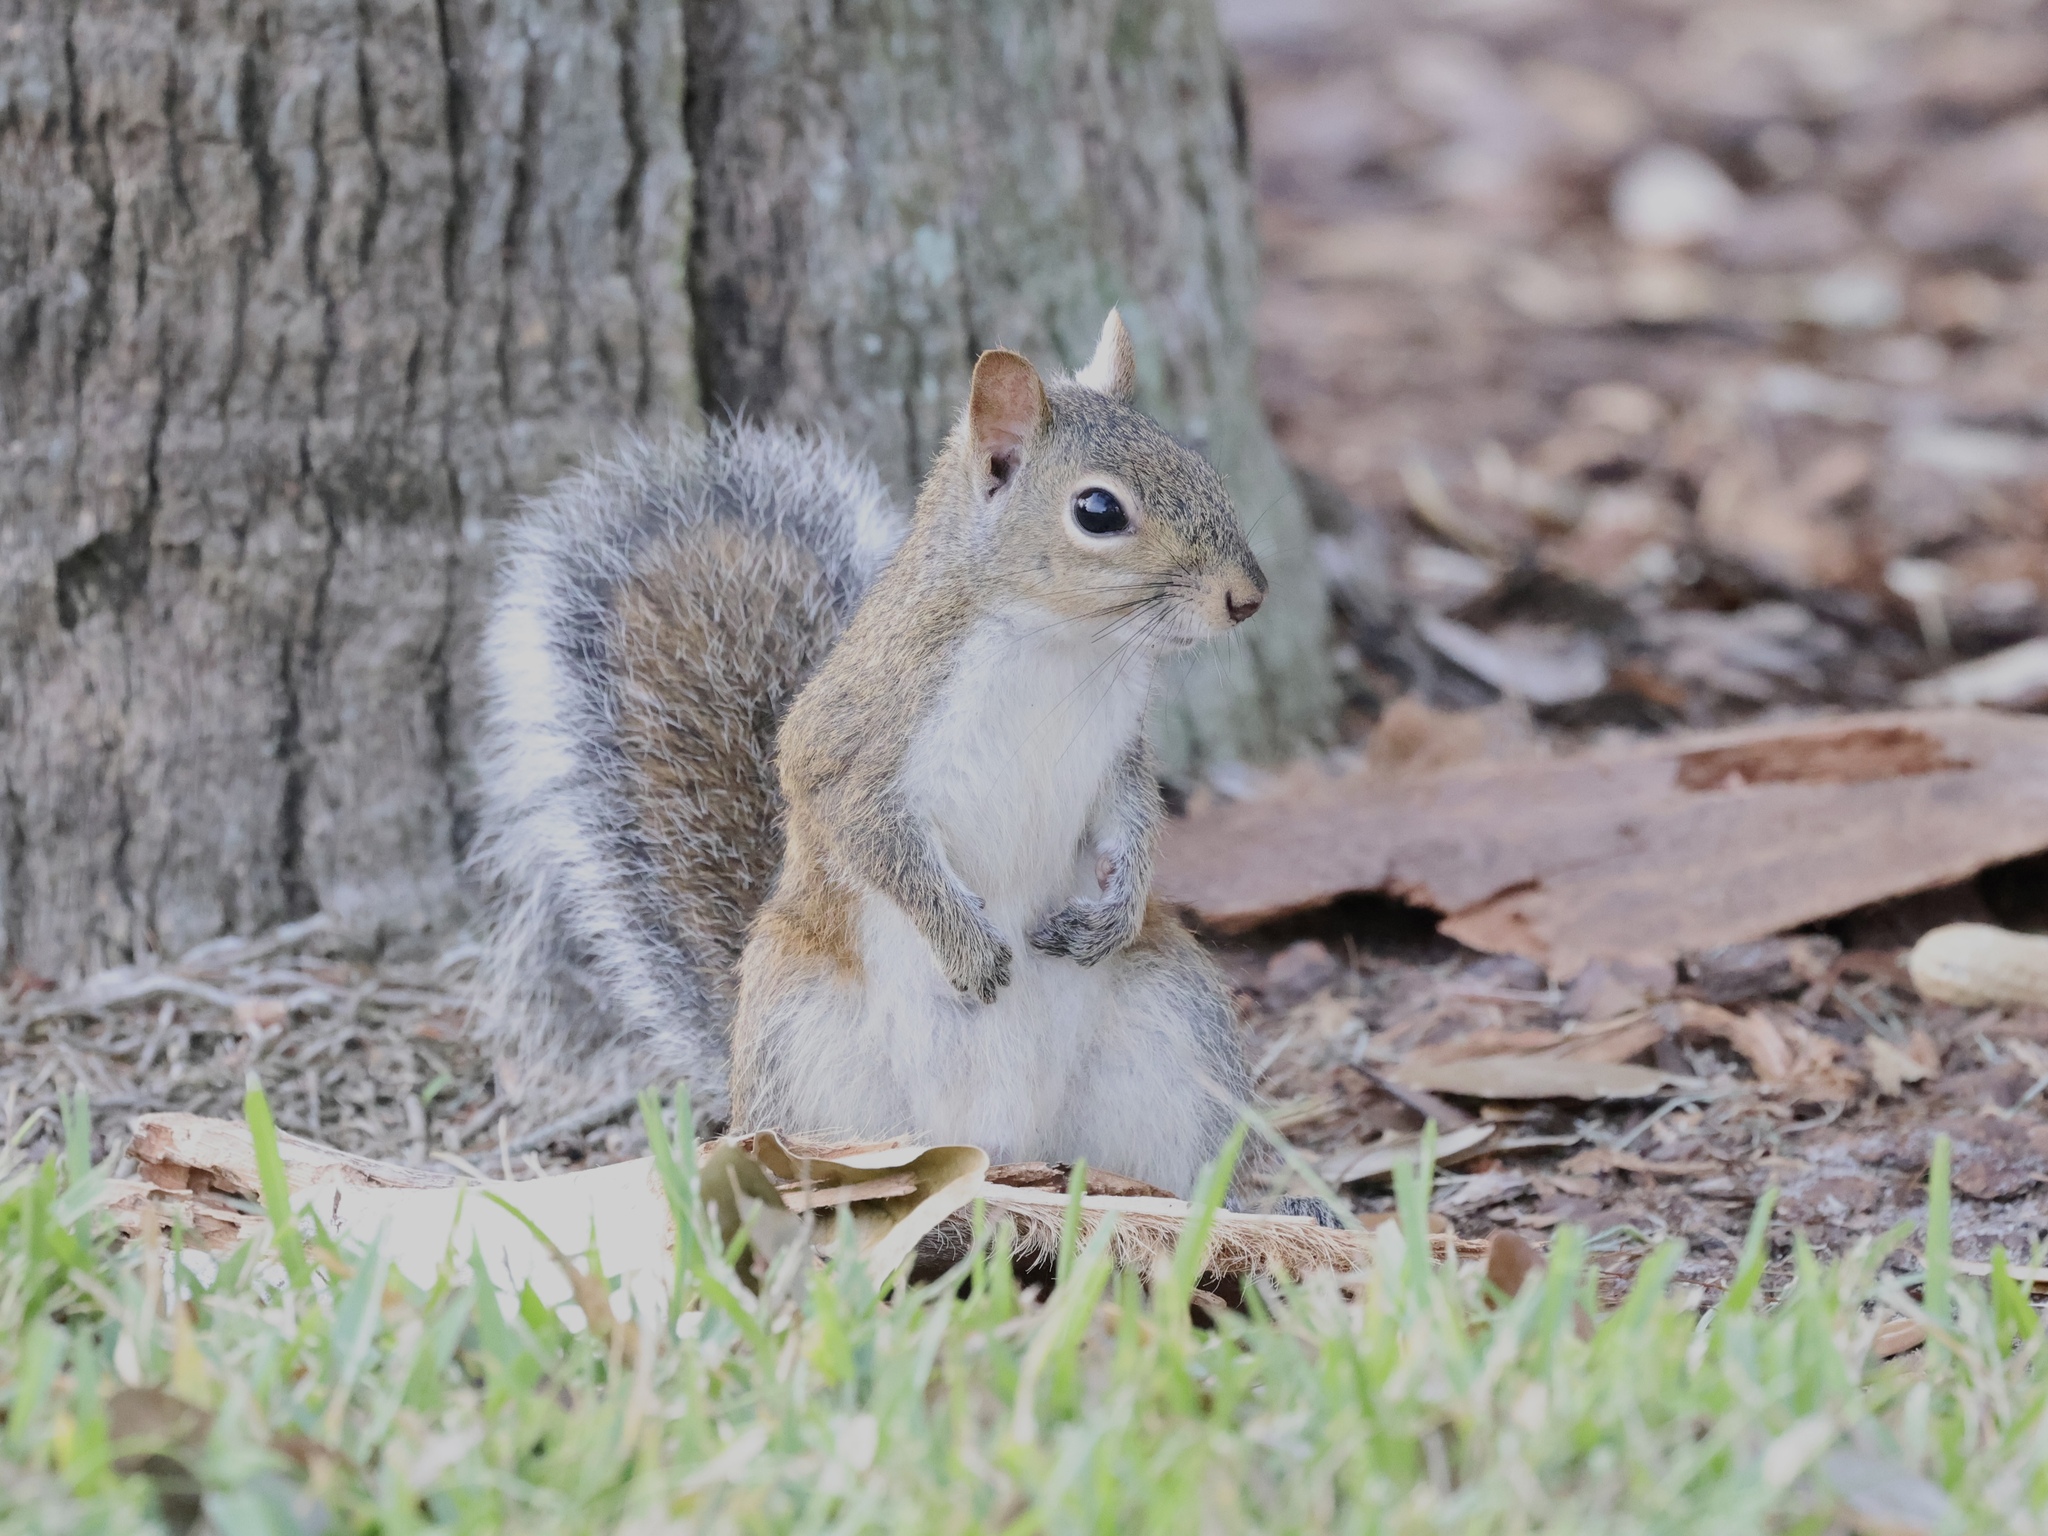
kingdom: Animalia
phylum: Chordata
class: Mammalia
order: Rodentia
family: Sciuridae
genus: Sciurus
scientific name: Sciurus carolinensis
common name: Eastern gray squirrel
